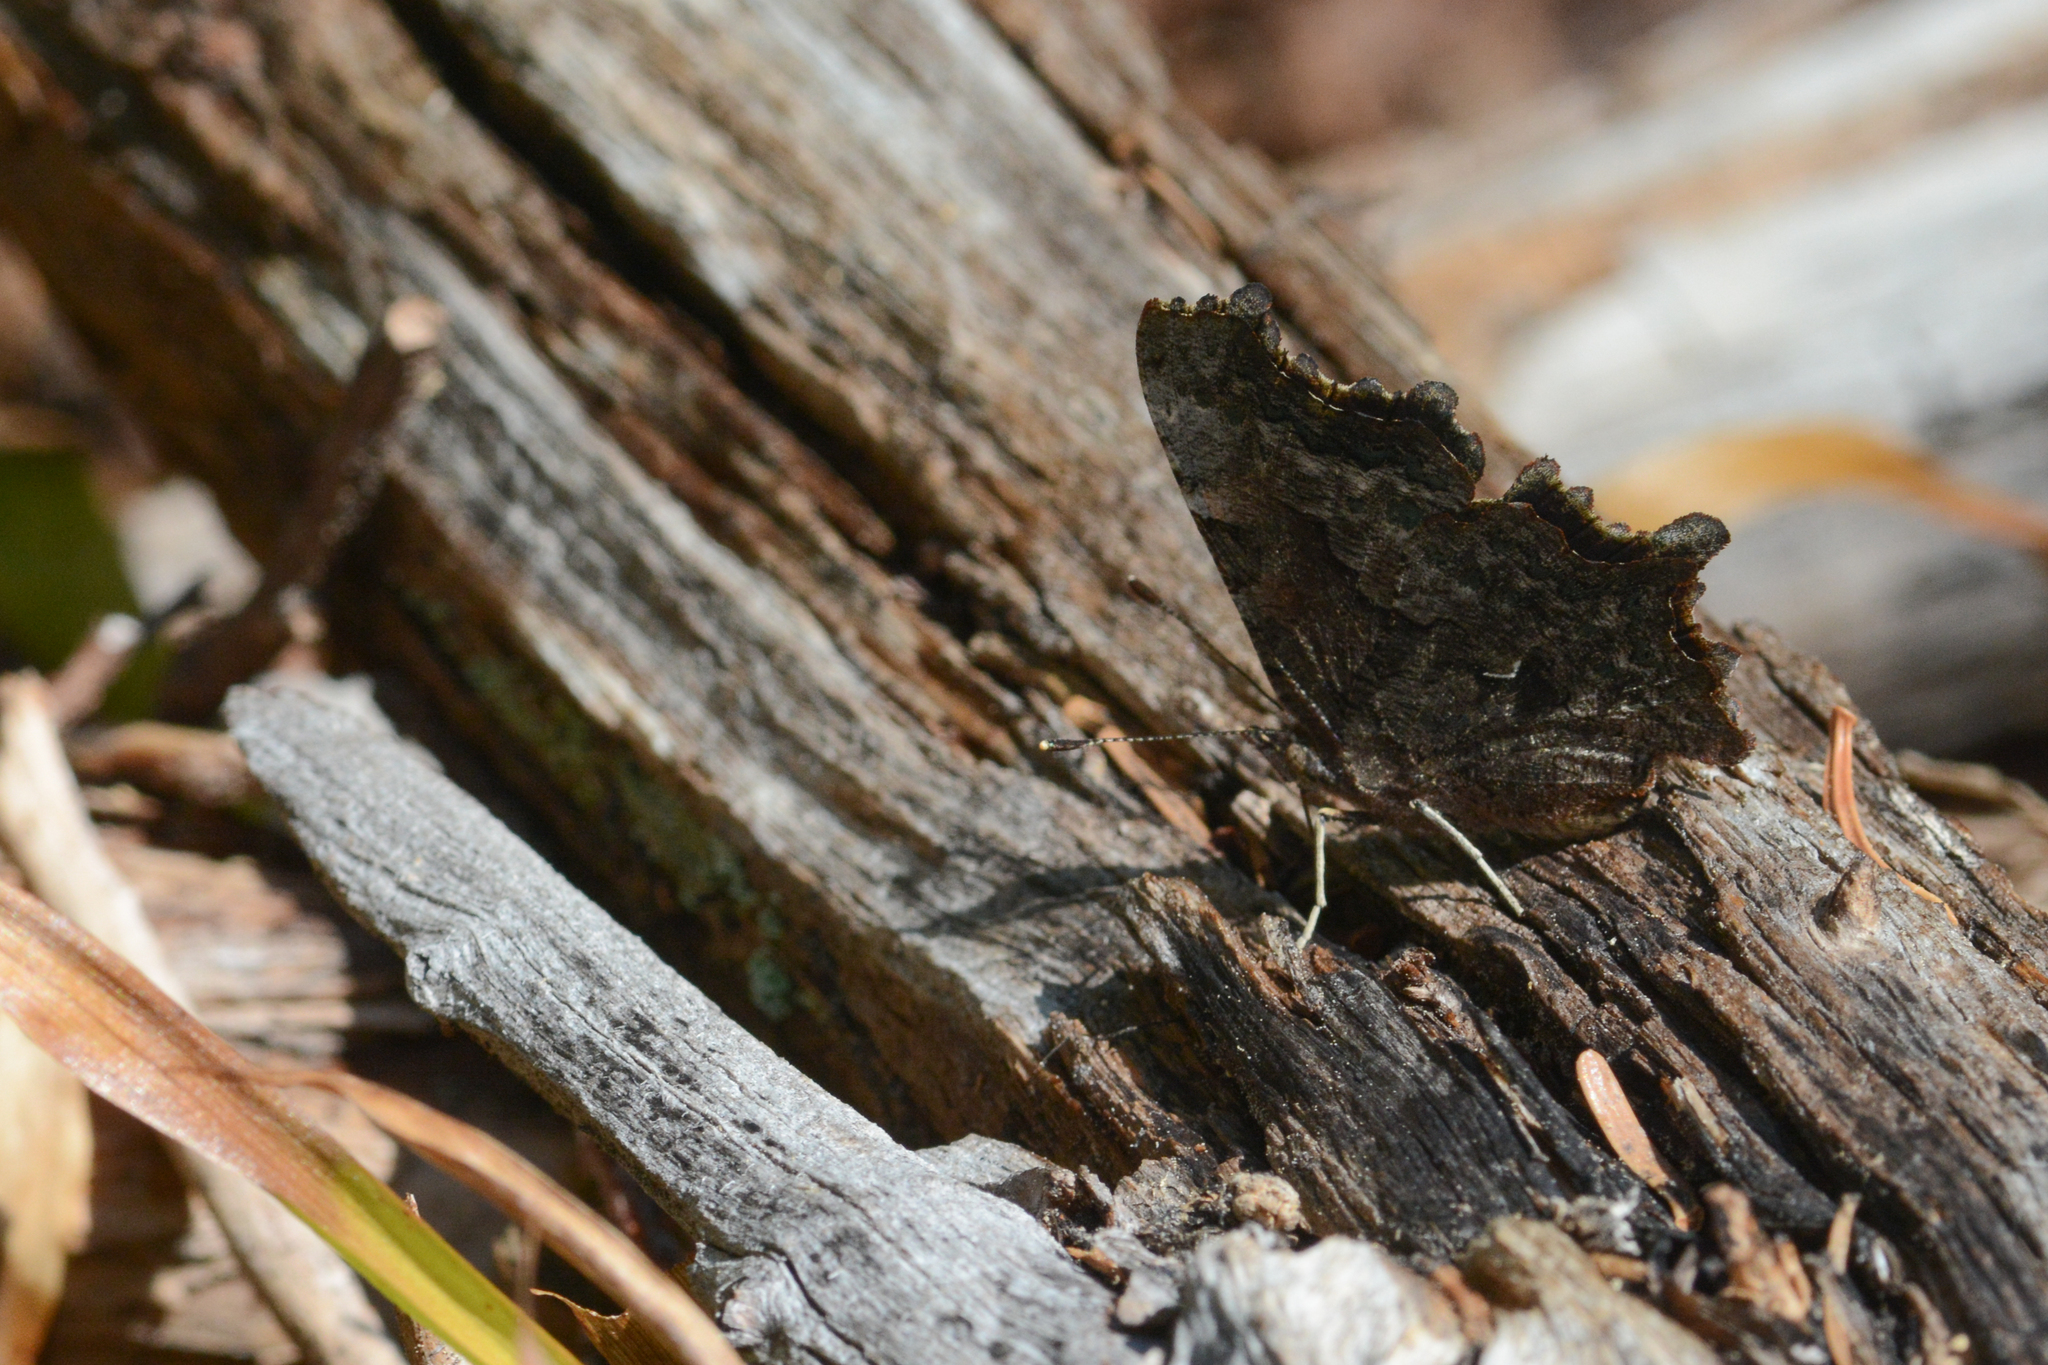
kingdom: Animalia
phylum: Arthropoda
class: Insecta
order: Lepidoptera
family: Nymphalidae
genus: Polygonia
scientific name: Polygonia faunus
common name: Green comma
